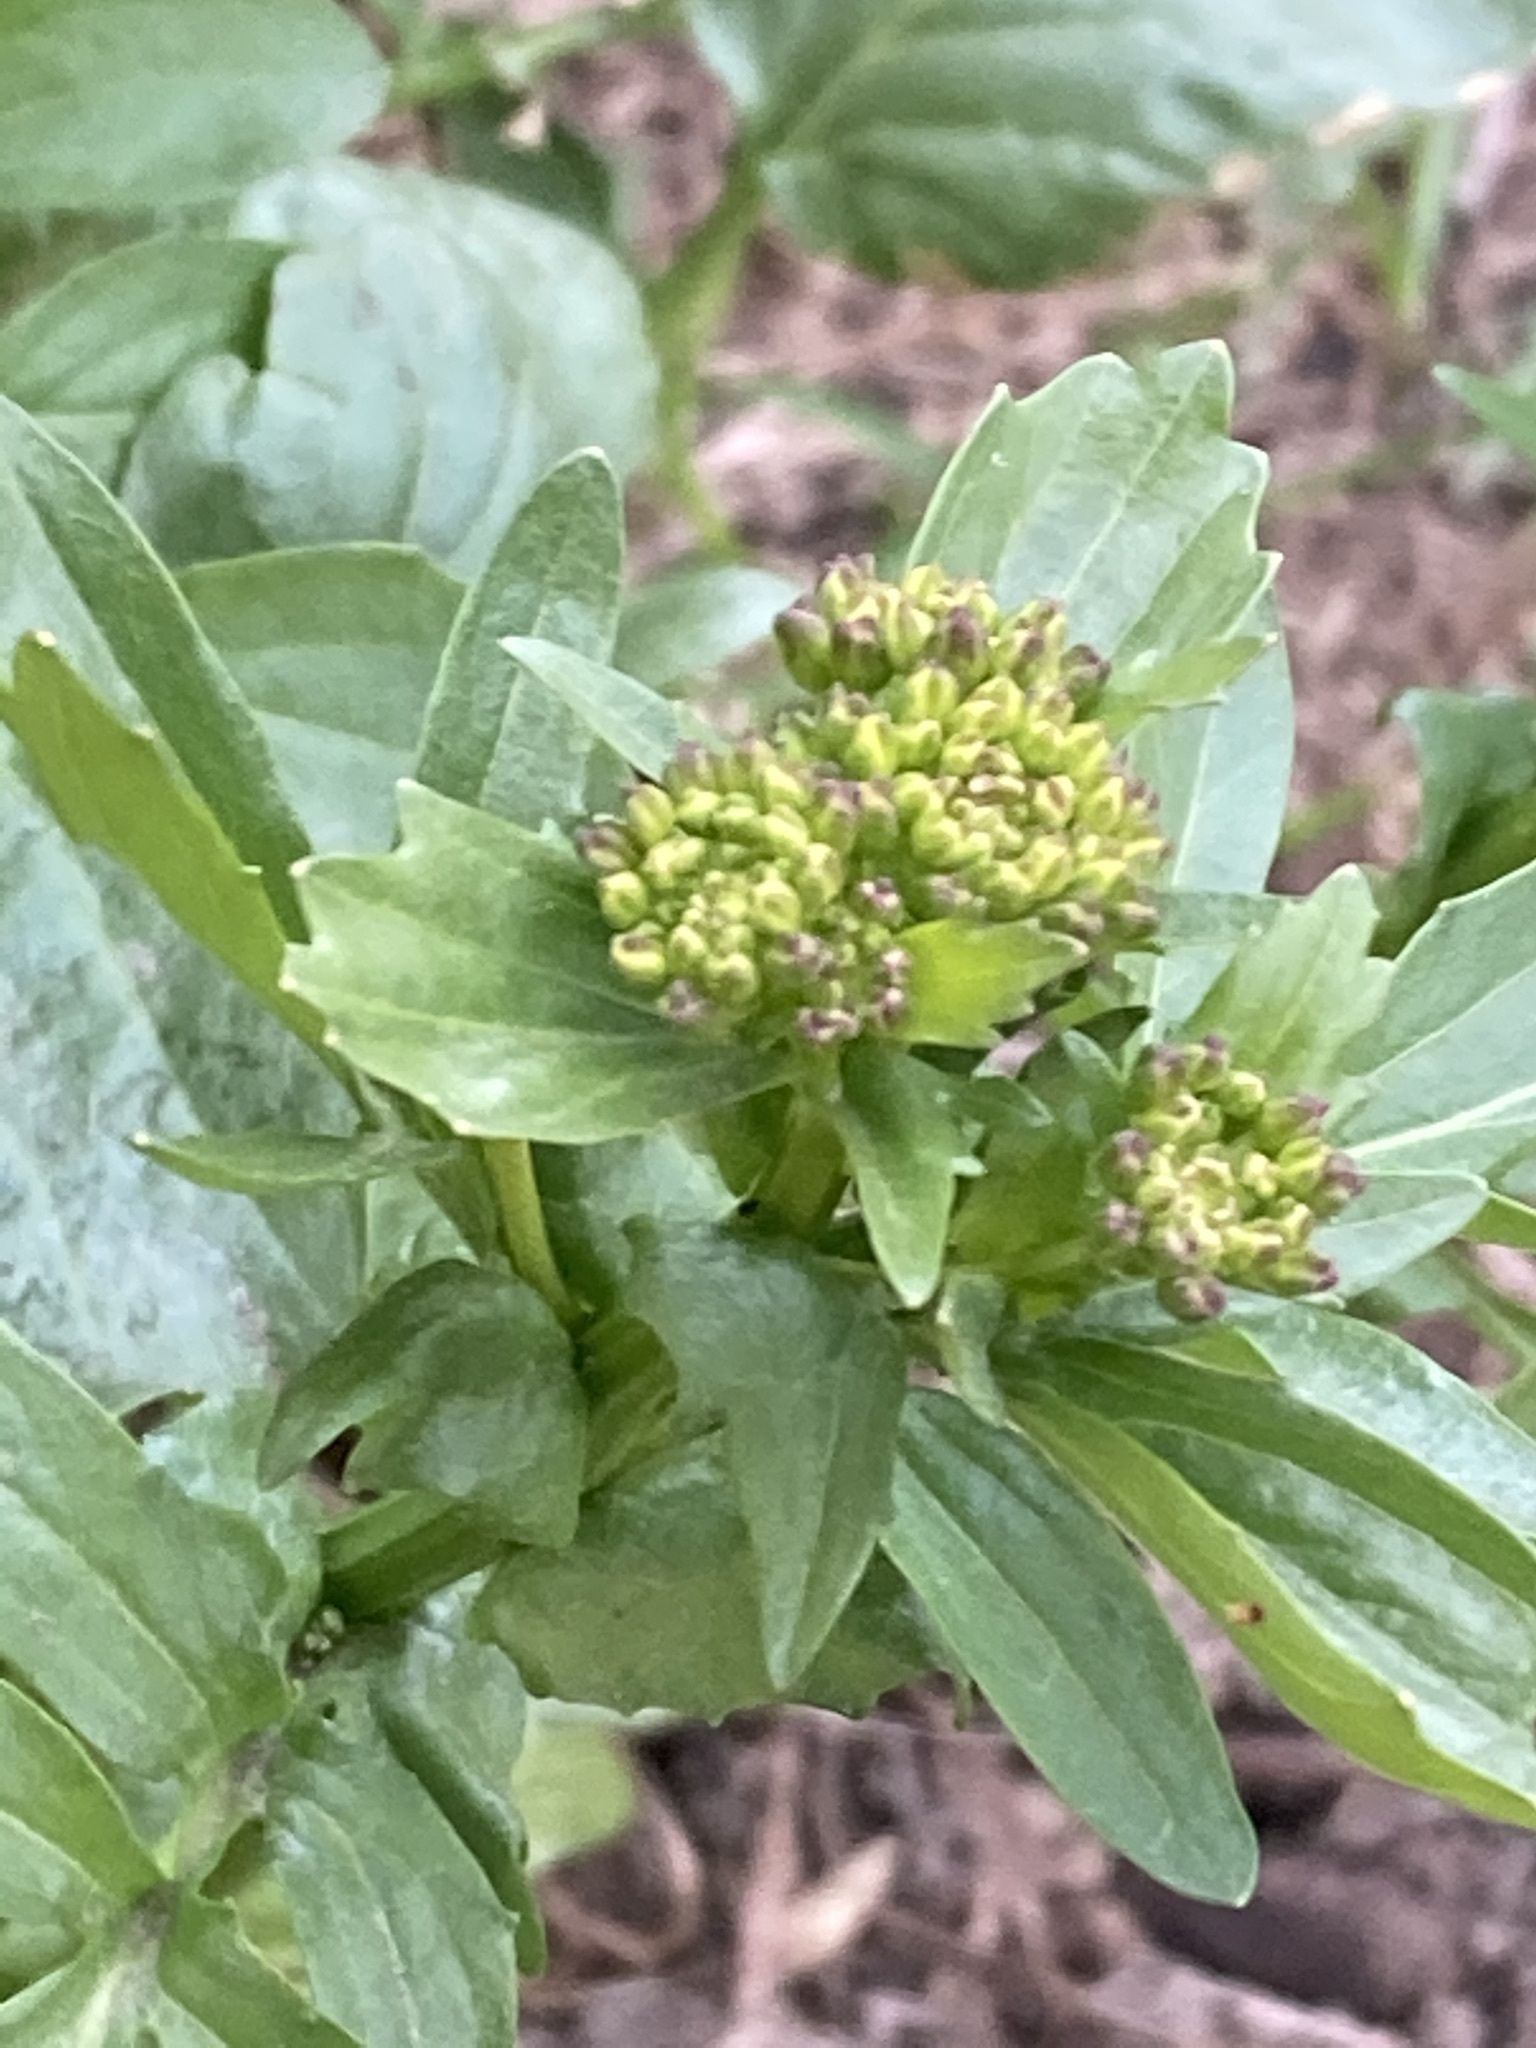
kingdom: Plantae
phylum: Tracheophyta
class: Magnoliopsida
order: Brassicales
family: Brassicaceae
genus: Barbarea
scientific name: Barbarea vulgaris
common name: Cressy-greens
